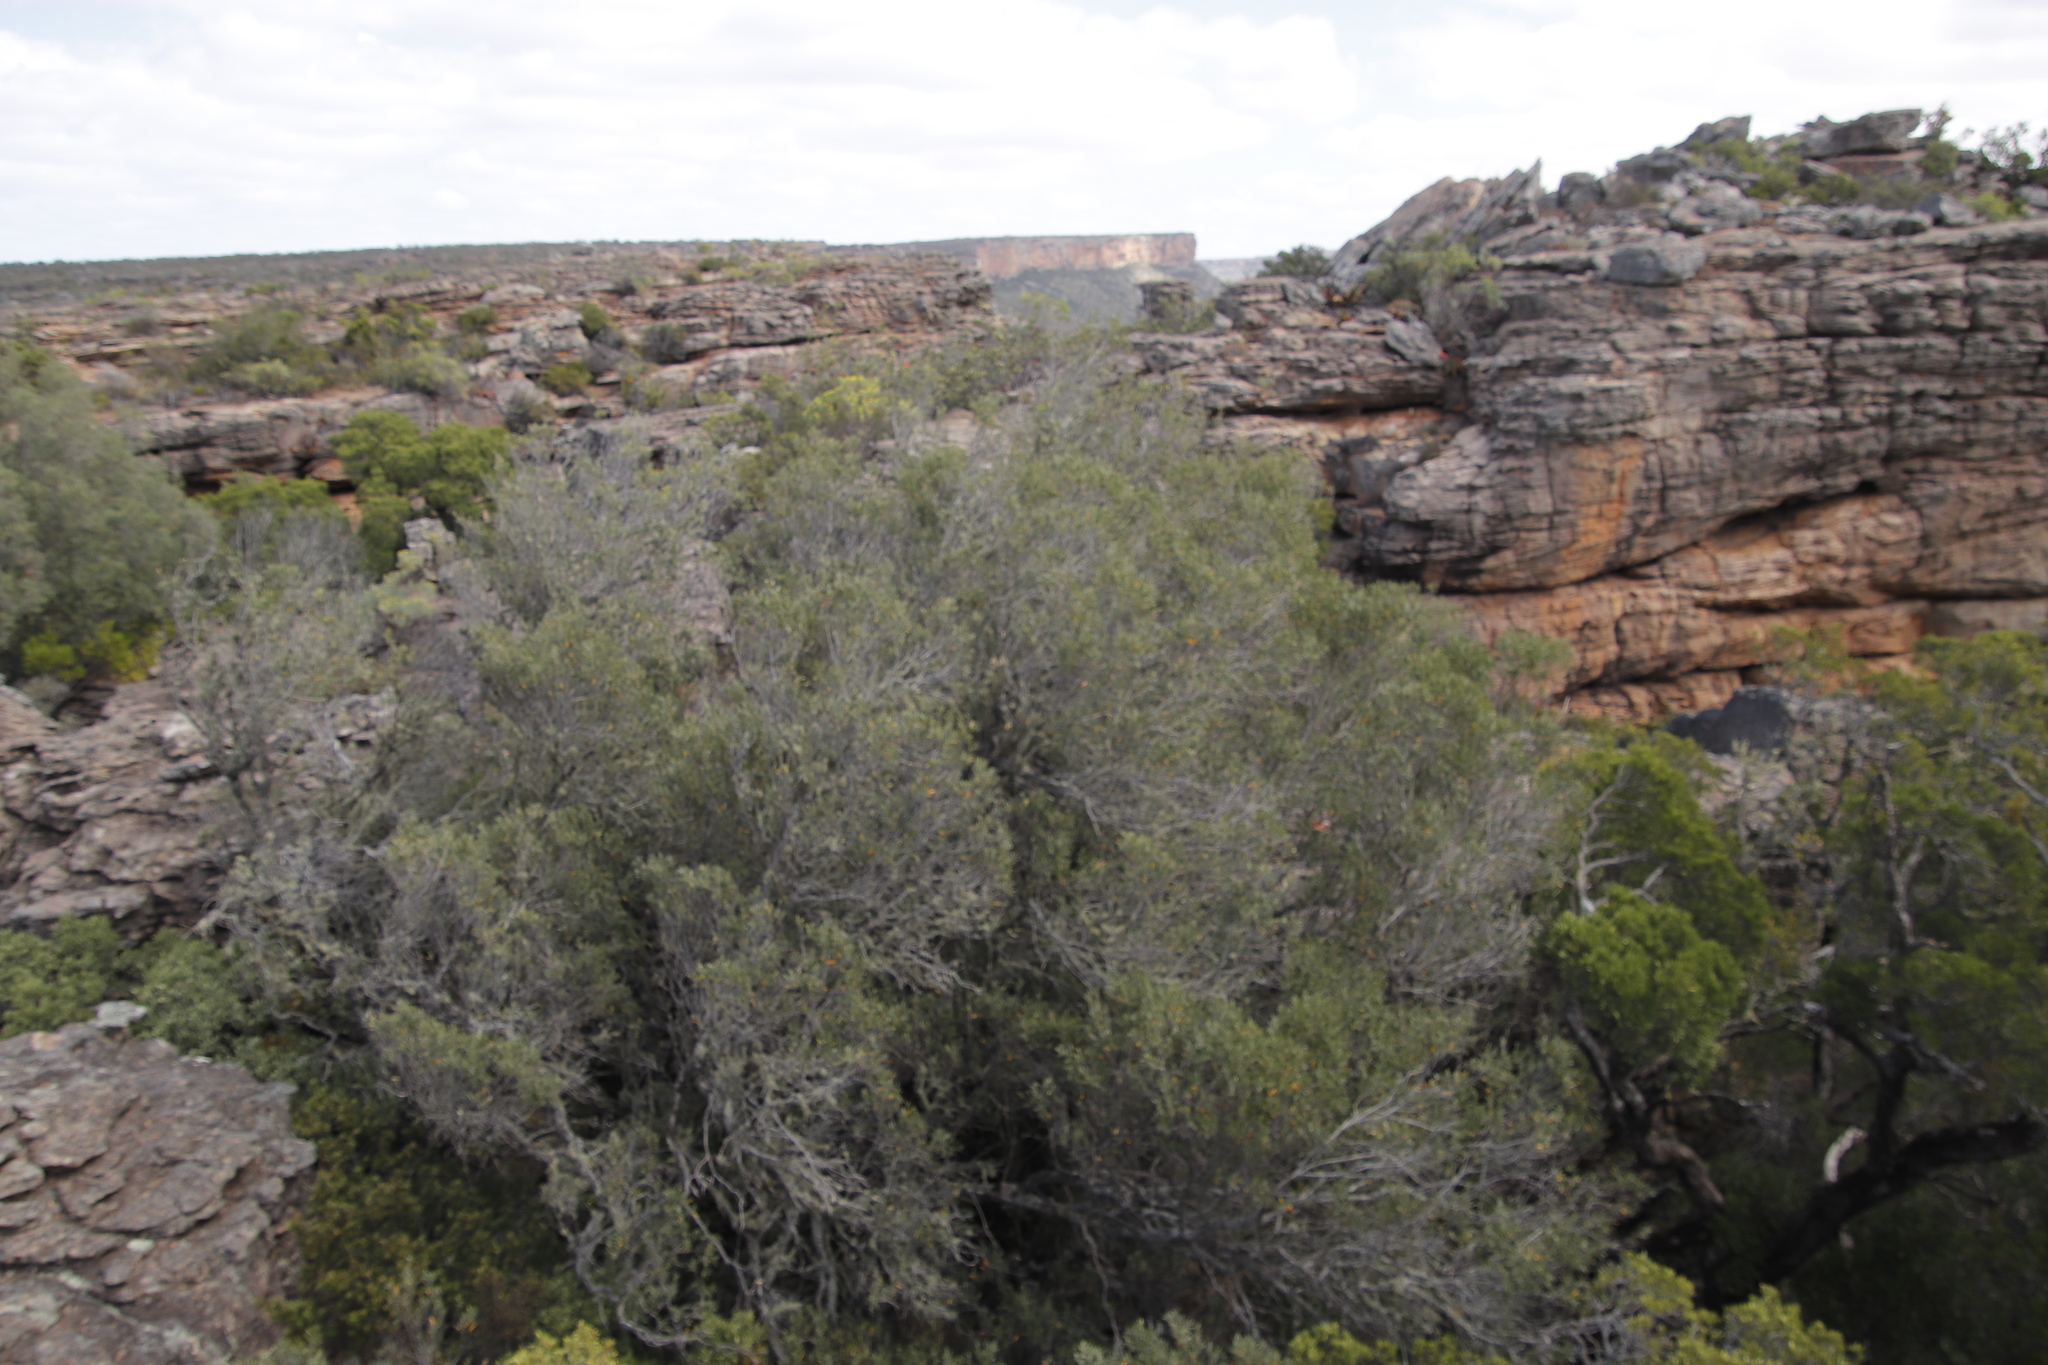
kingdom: Plantae
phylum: Tracheophyta
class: Magnoliopsida
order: Lamiales
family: Oleaceae
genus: Olea
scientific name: Olea europaea
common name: Olive
